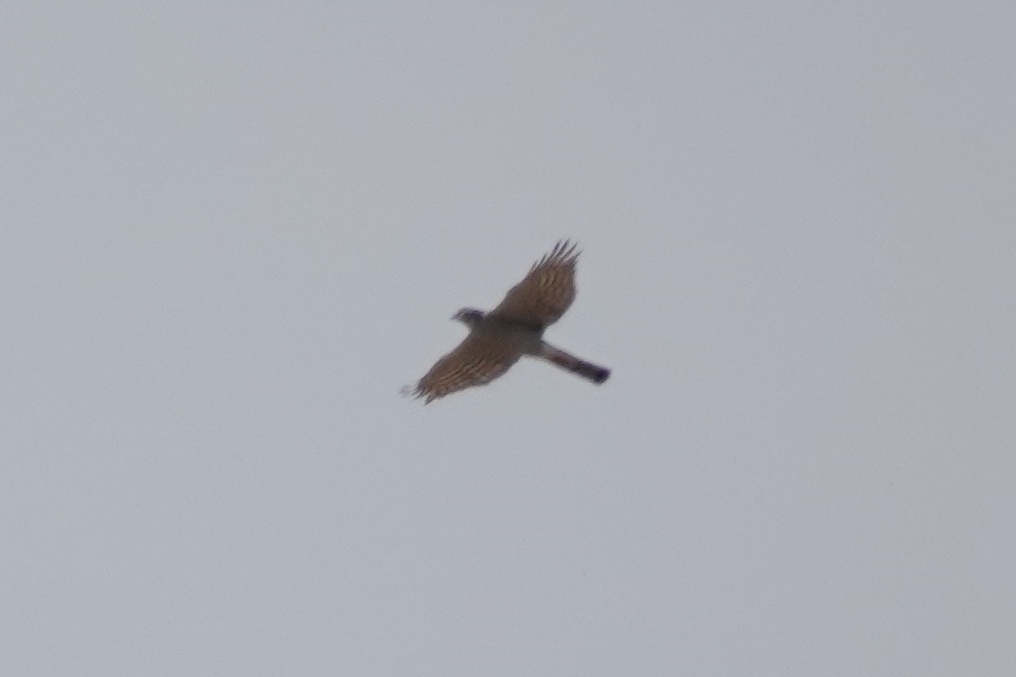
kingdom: Animalia
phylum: Chordata
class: Aves
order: Accipitriformes
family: Accipitridae
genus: Accipiter
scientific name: Accipiter nisus
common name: Eurasian sparrowhawk
